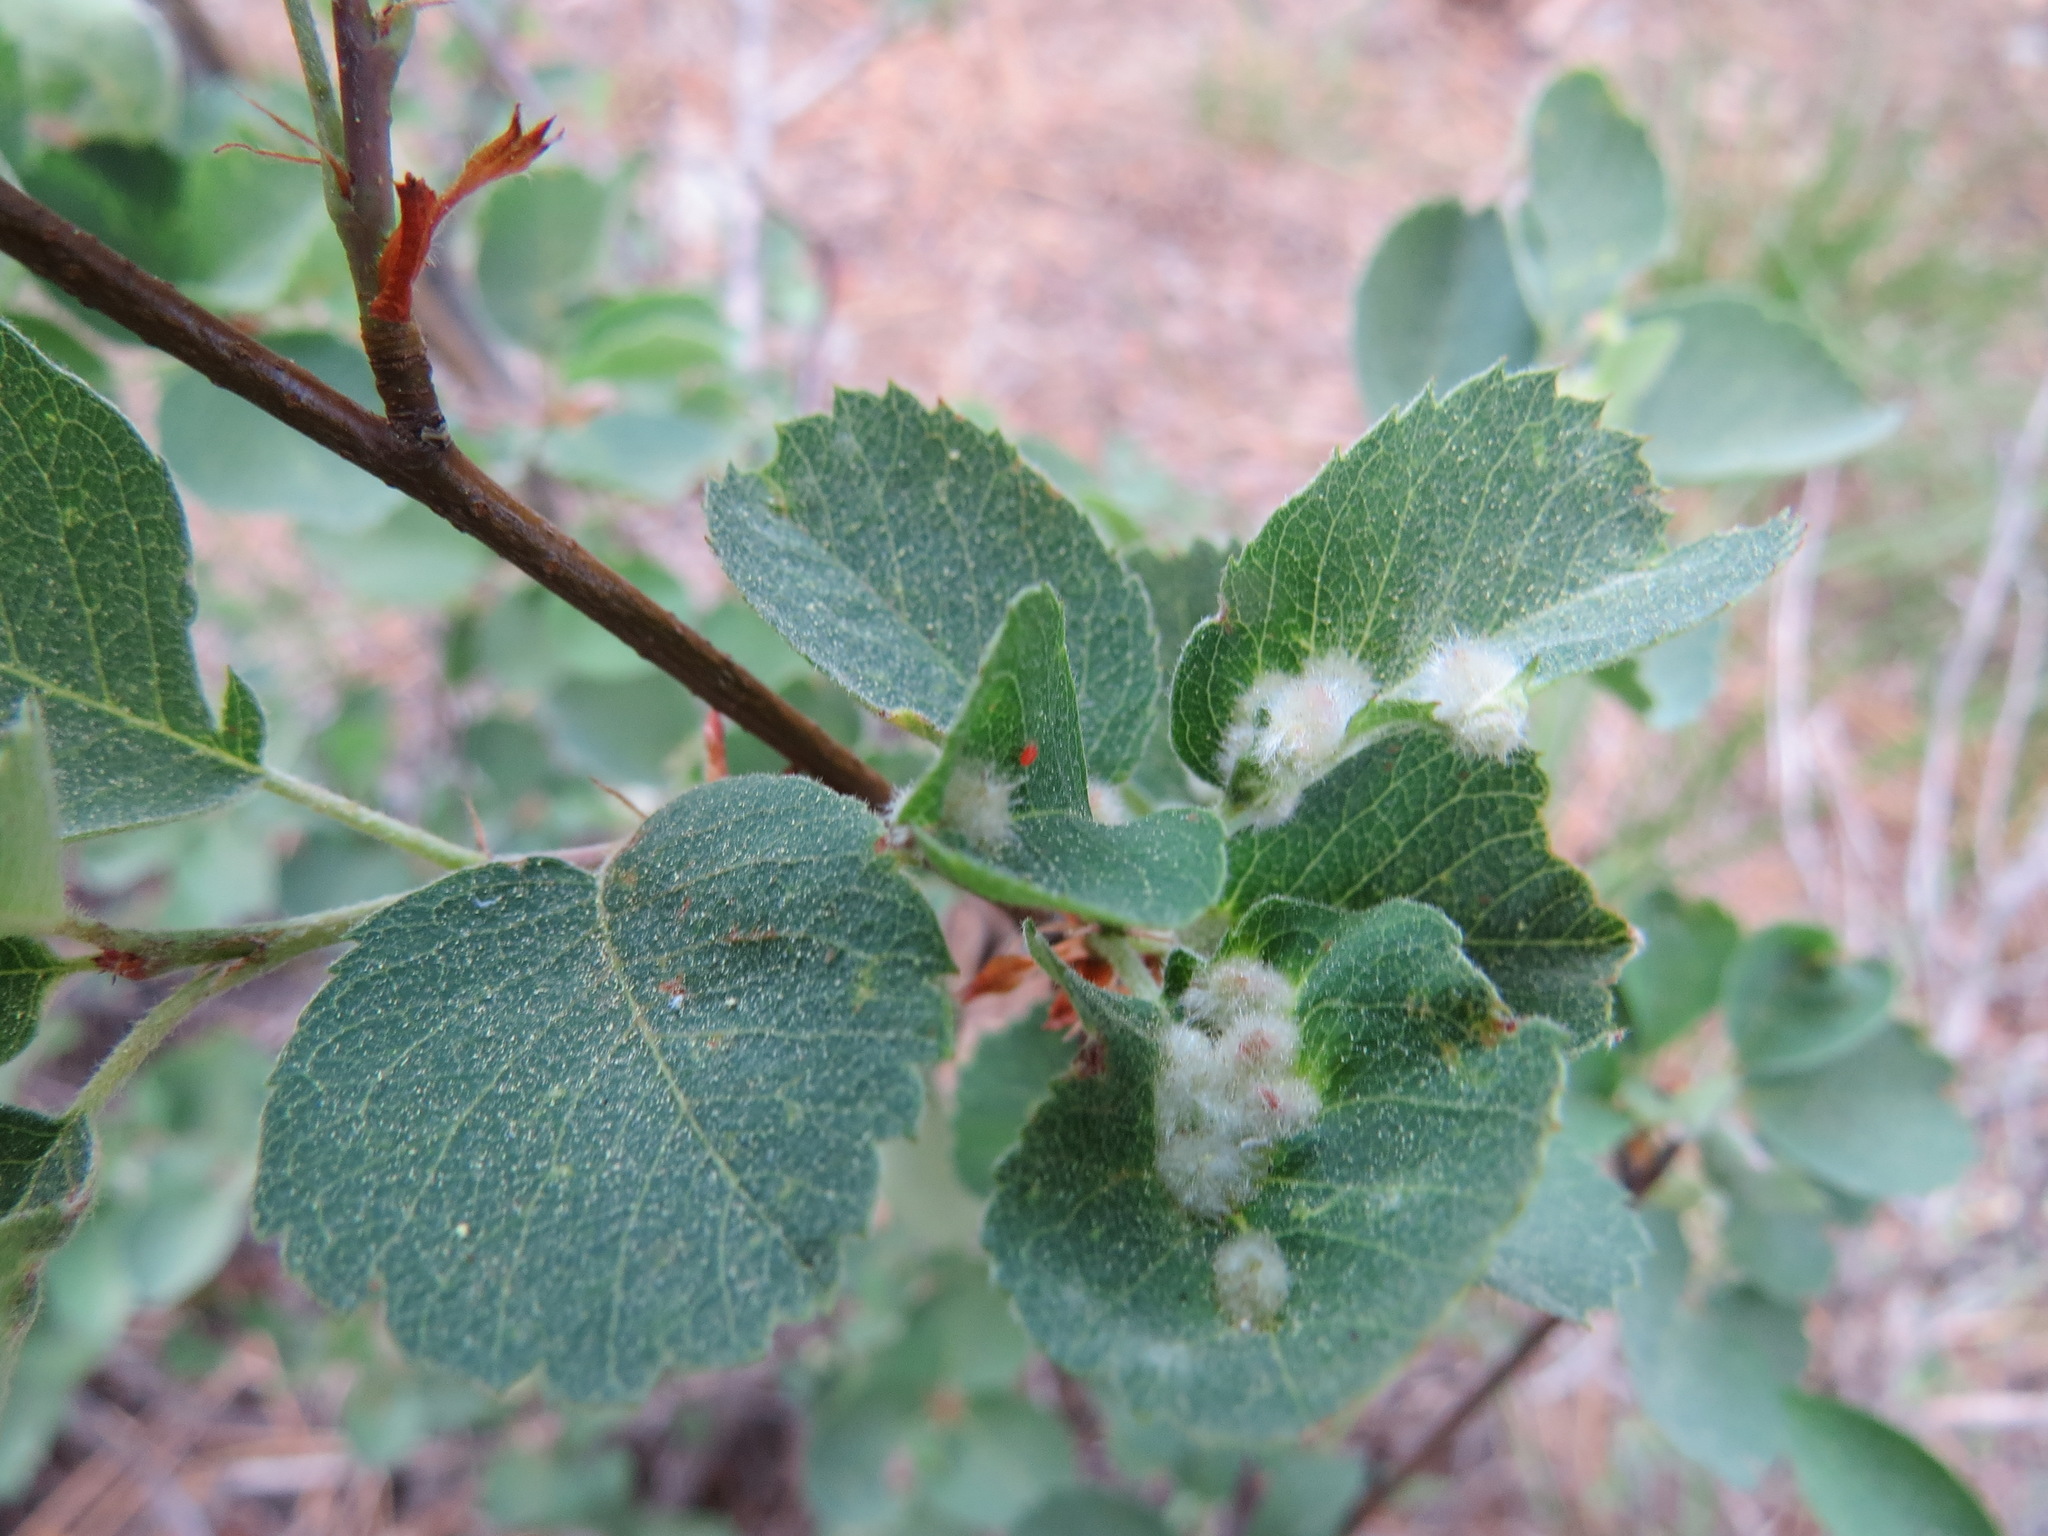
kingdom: Animalia
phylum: Arthropoda
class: Insecta
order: Diptera
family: Cecidomyiidae
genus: Blaesodiplosis
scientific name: Blaesodiplosis
